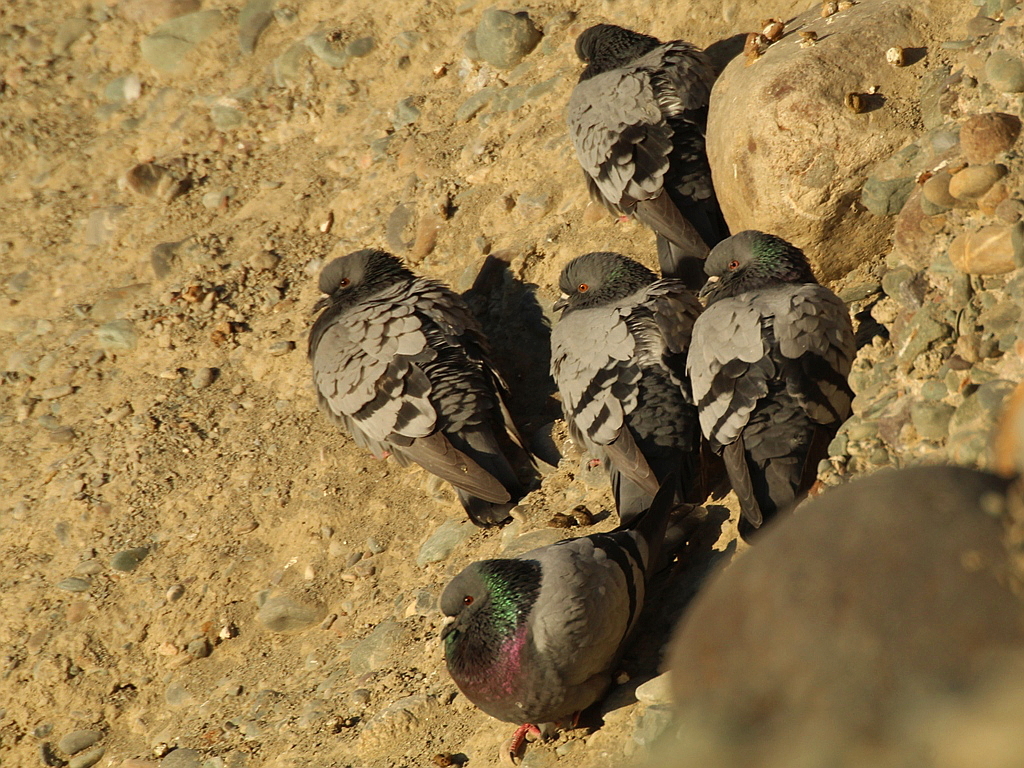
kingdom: Animalia
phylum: Chordata
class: Aves
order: Columbiformes
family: Columbidae
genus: Columba
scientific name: Columba livia
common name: Rock pigeon
